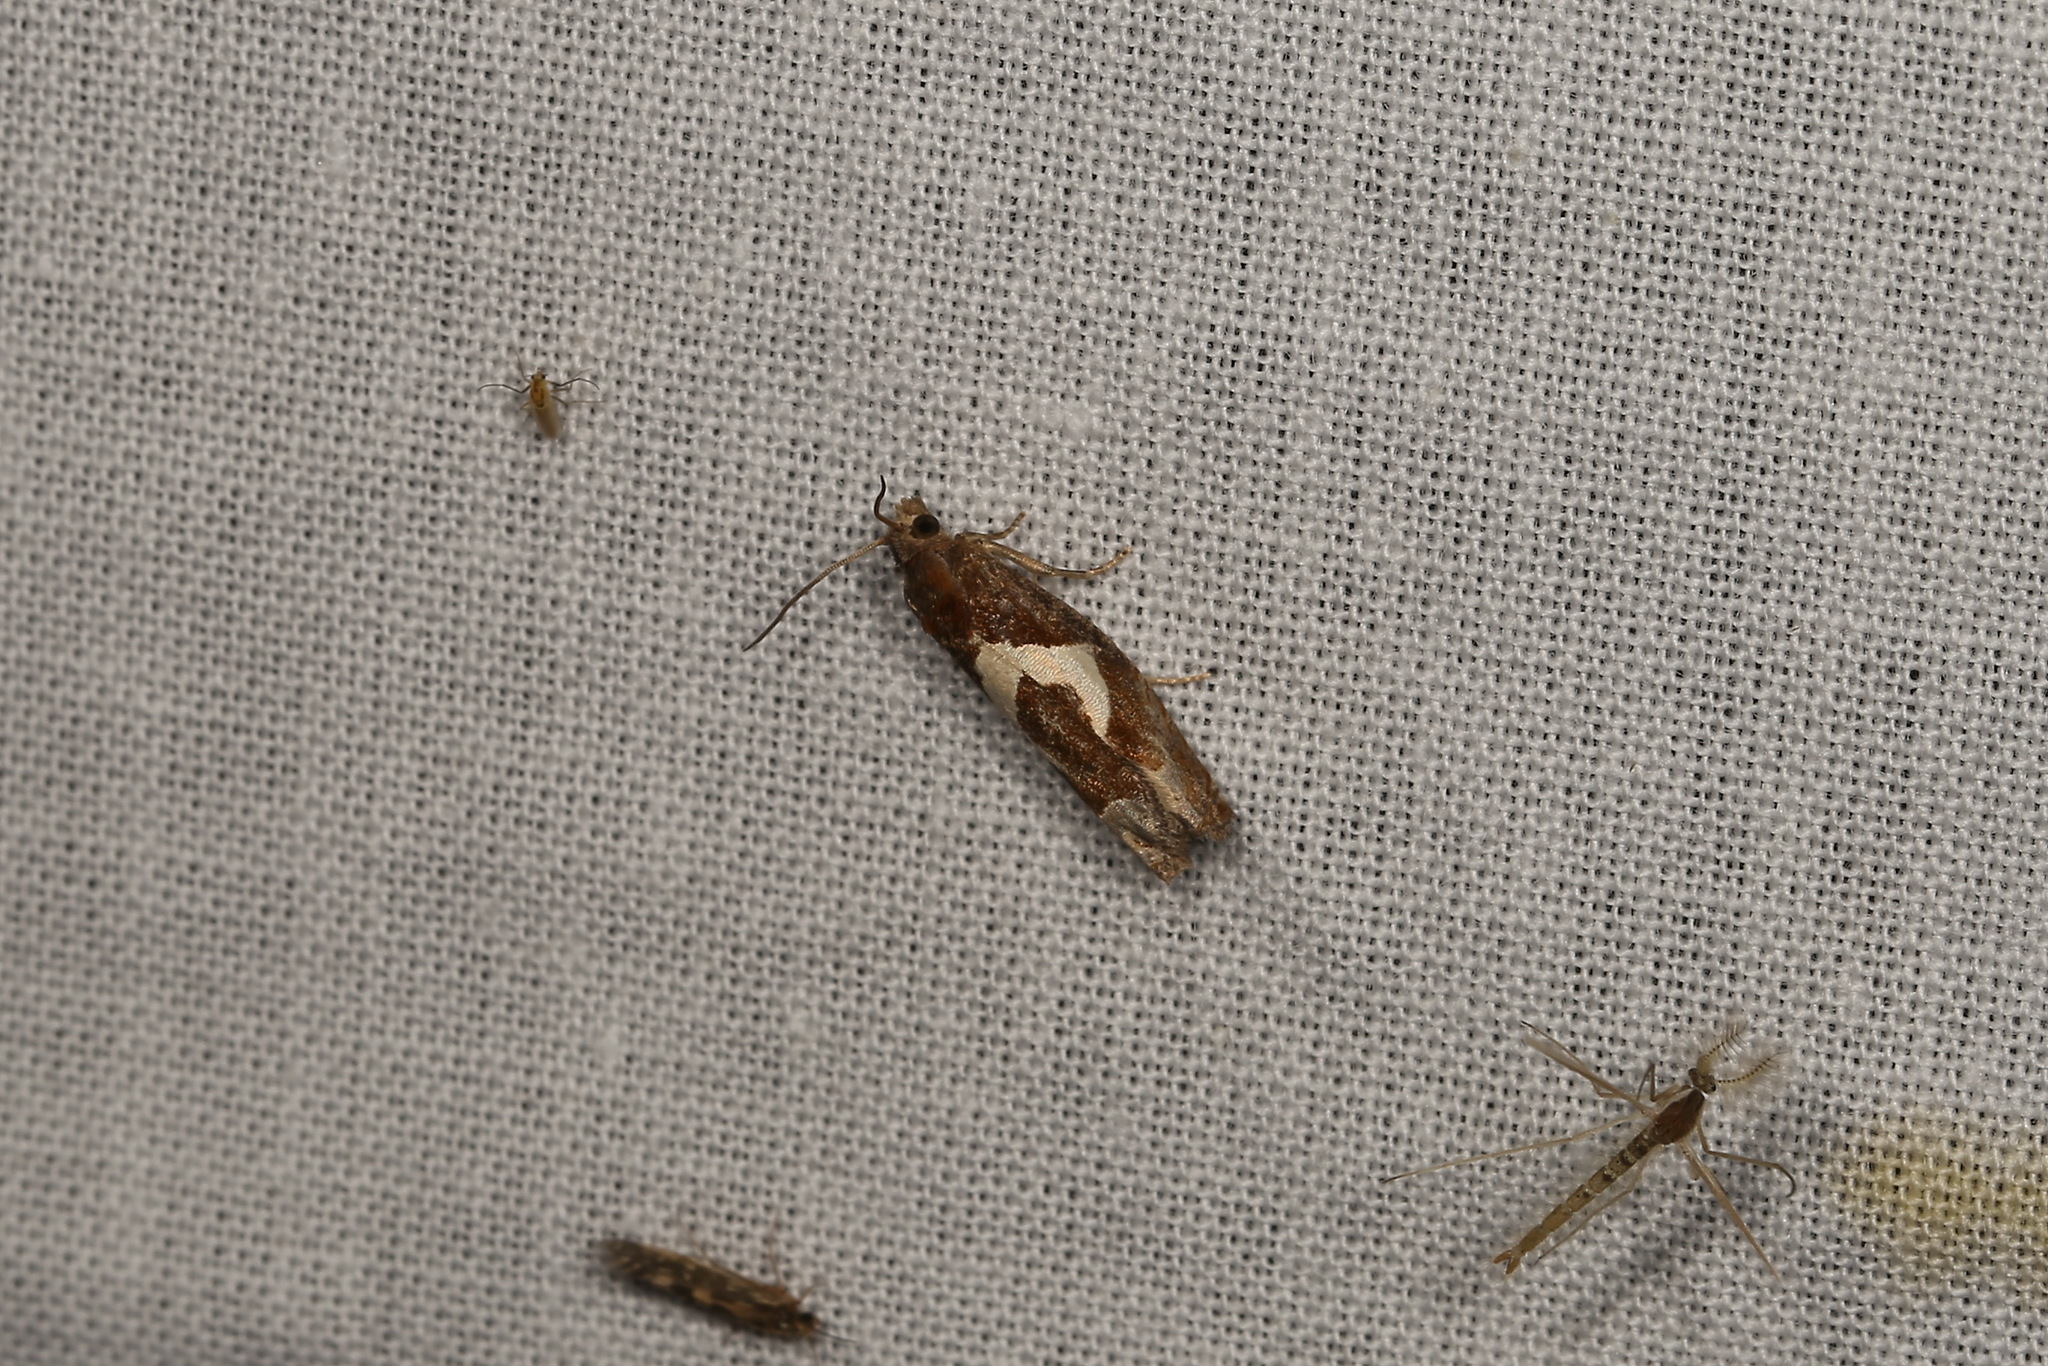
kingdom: Animalia
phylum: Arthropoda
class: Insecta
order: Lepidoptera
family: Tortricidae
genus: Epiblema
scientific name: Epiblema foenella
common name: White-foot bell
